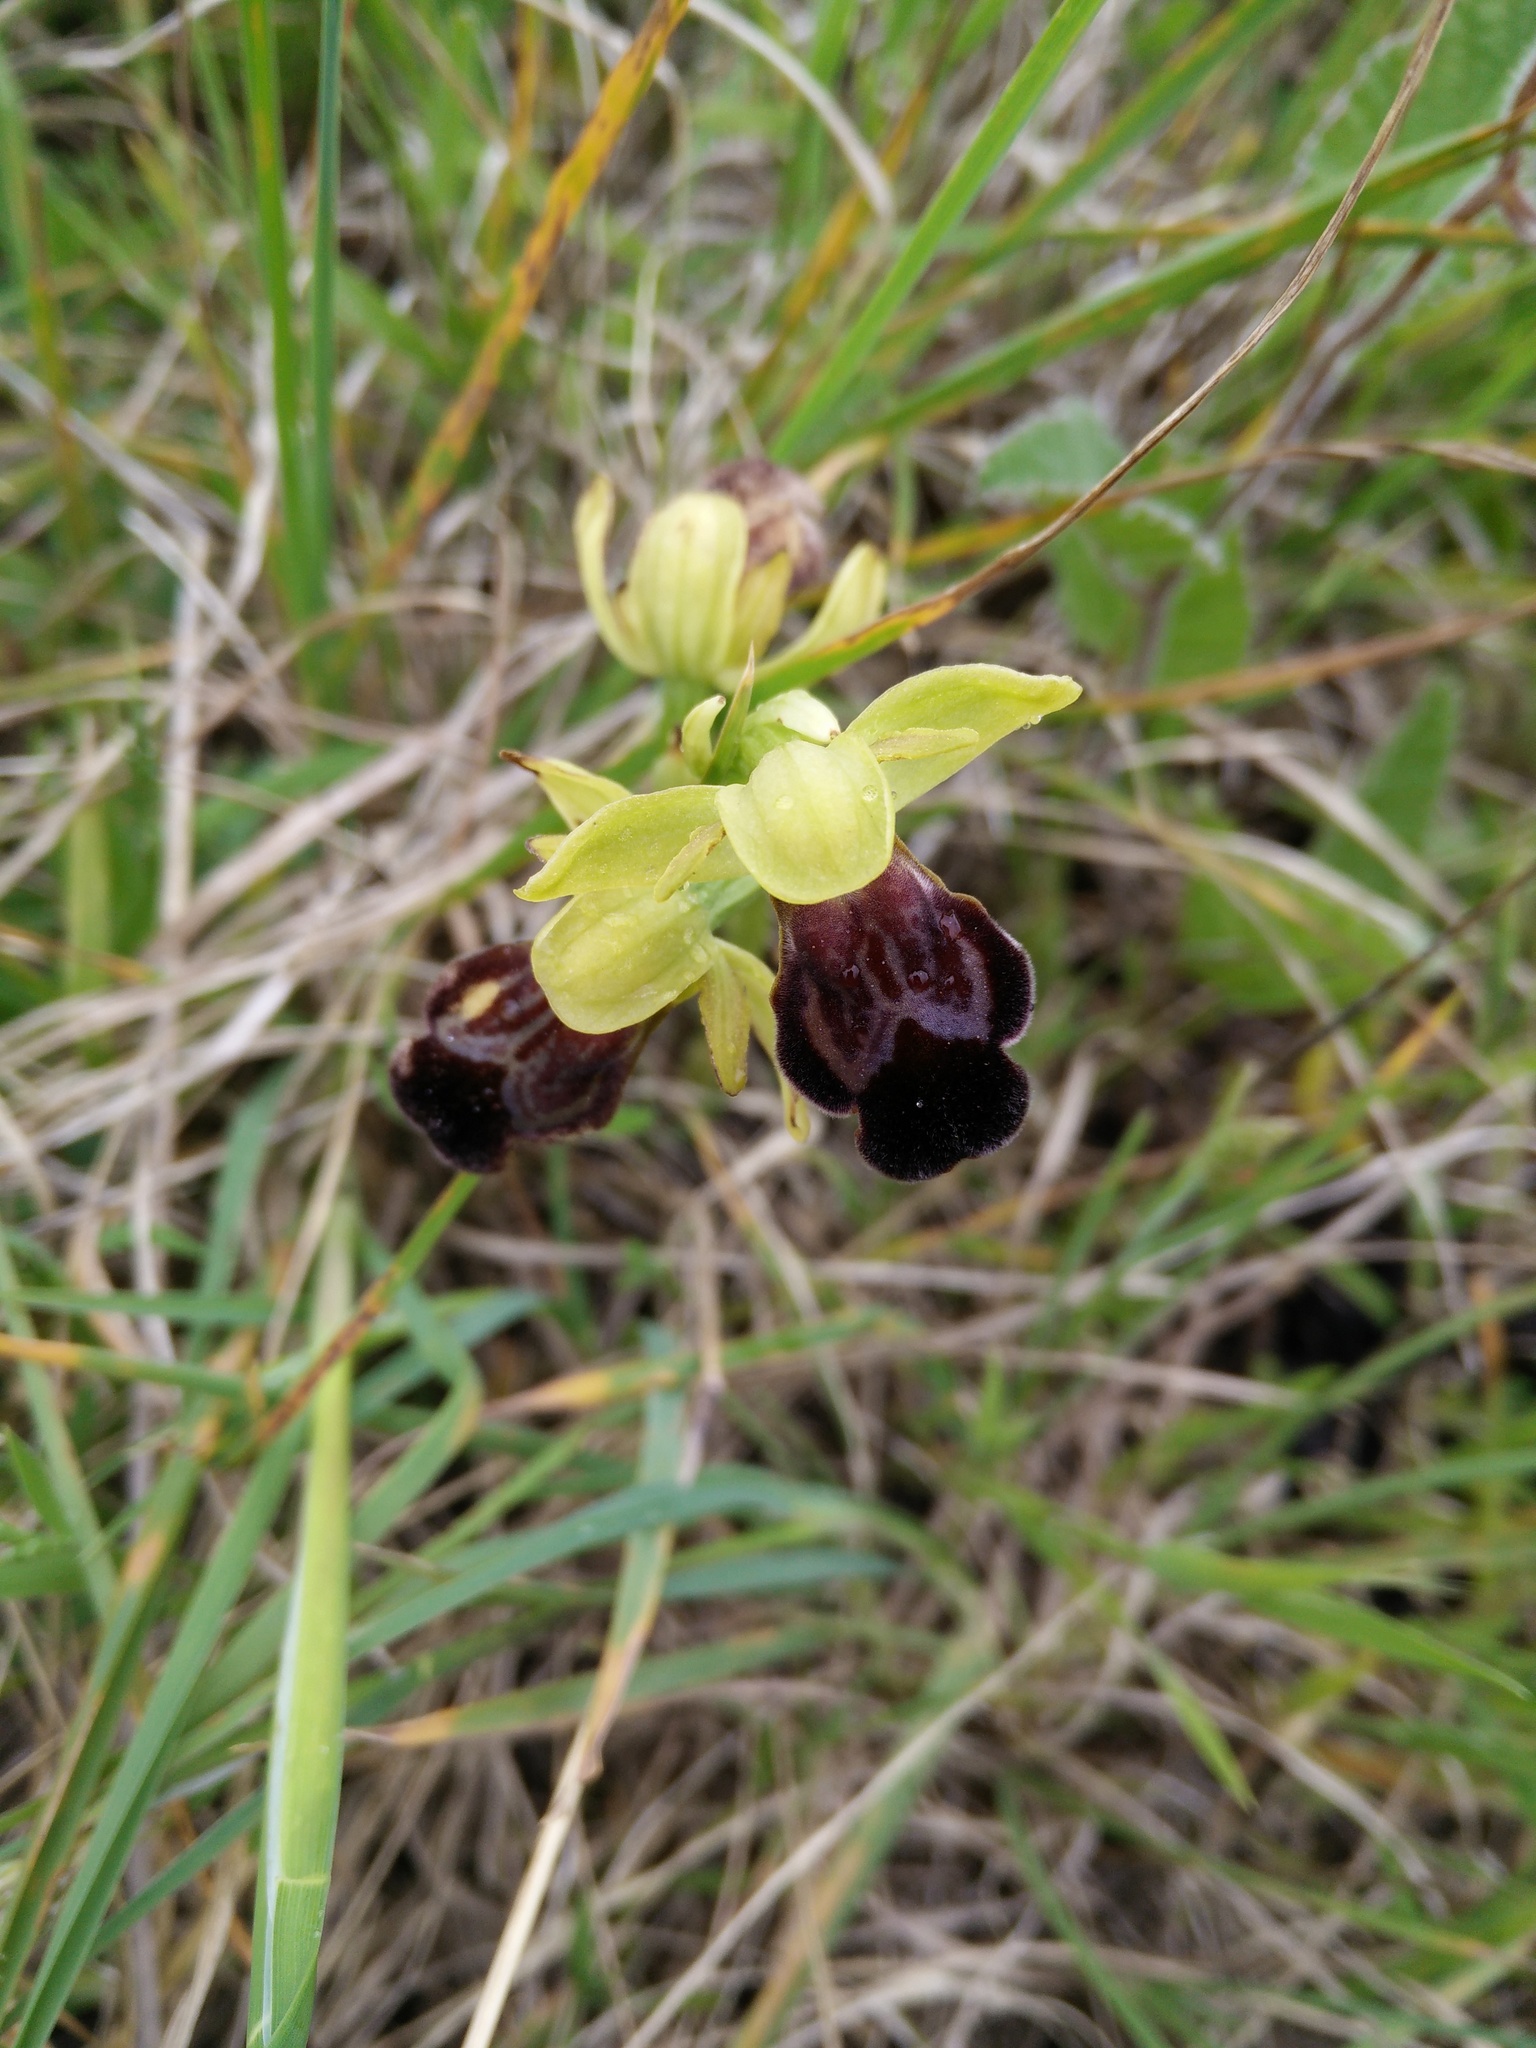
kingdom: Plantae
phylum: Tracheophyta
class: Liliopsida
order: Asparagales
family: Orchidaceae
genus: Ophrys
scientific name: Ophrys fusca
